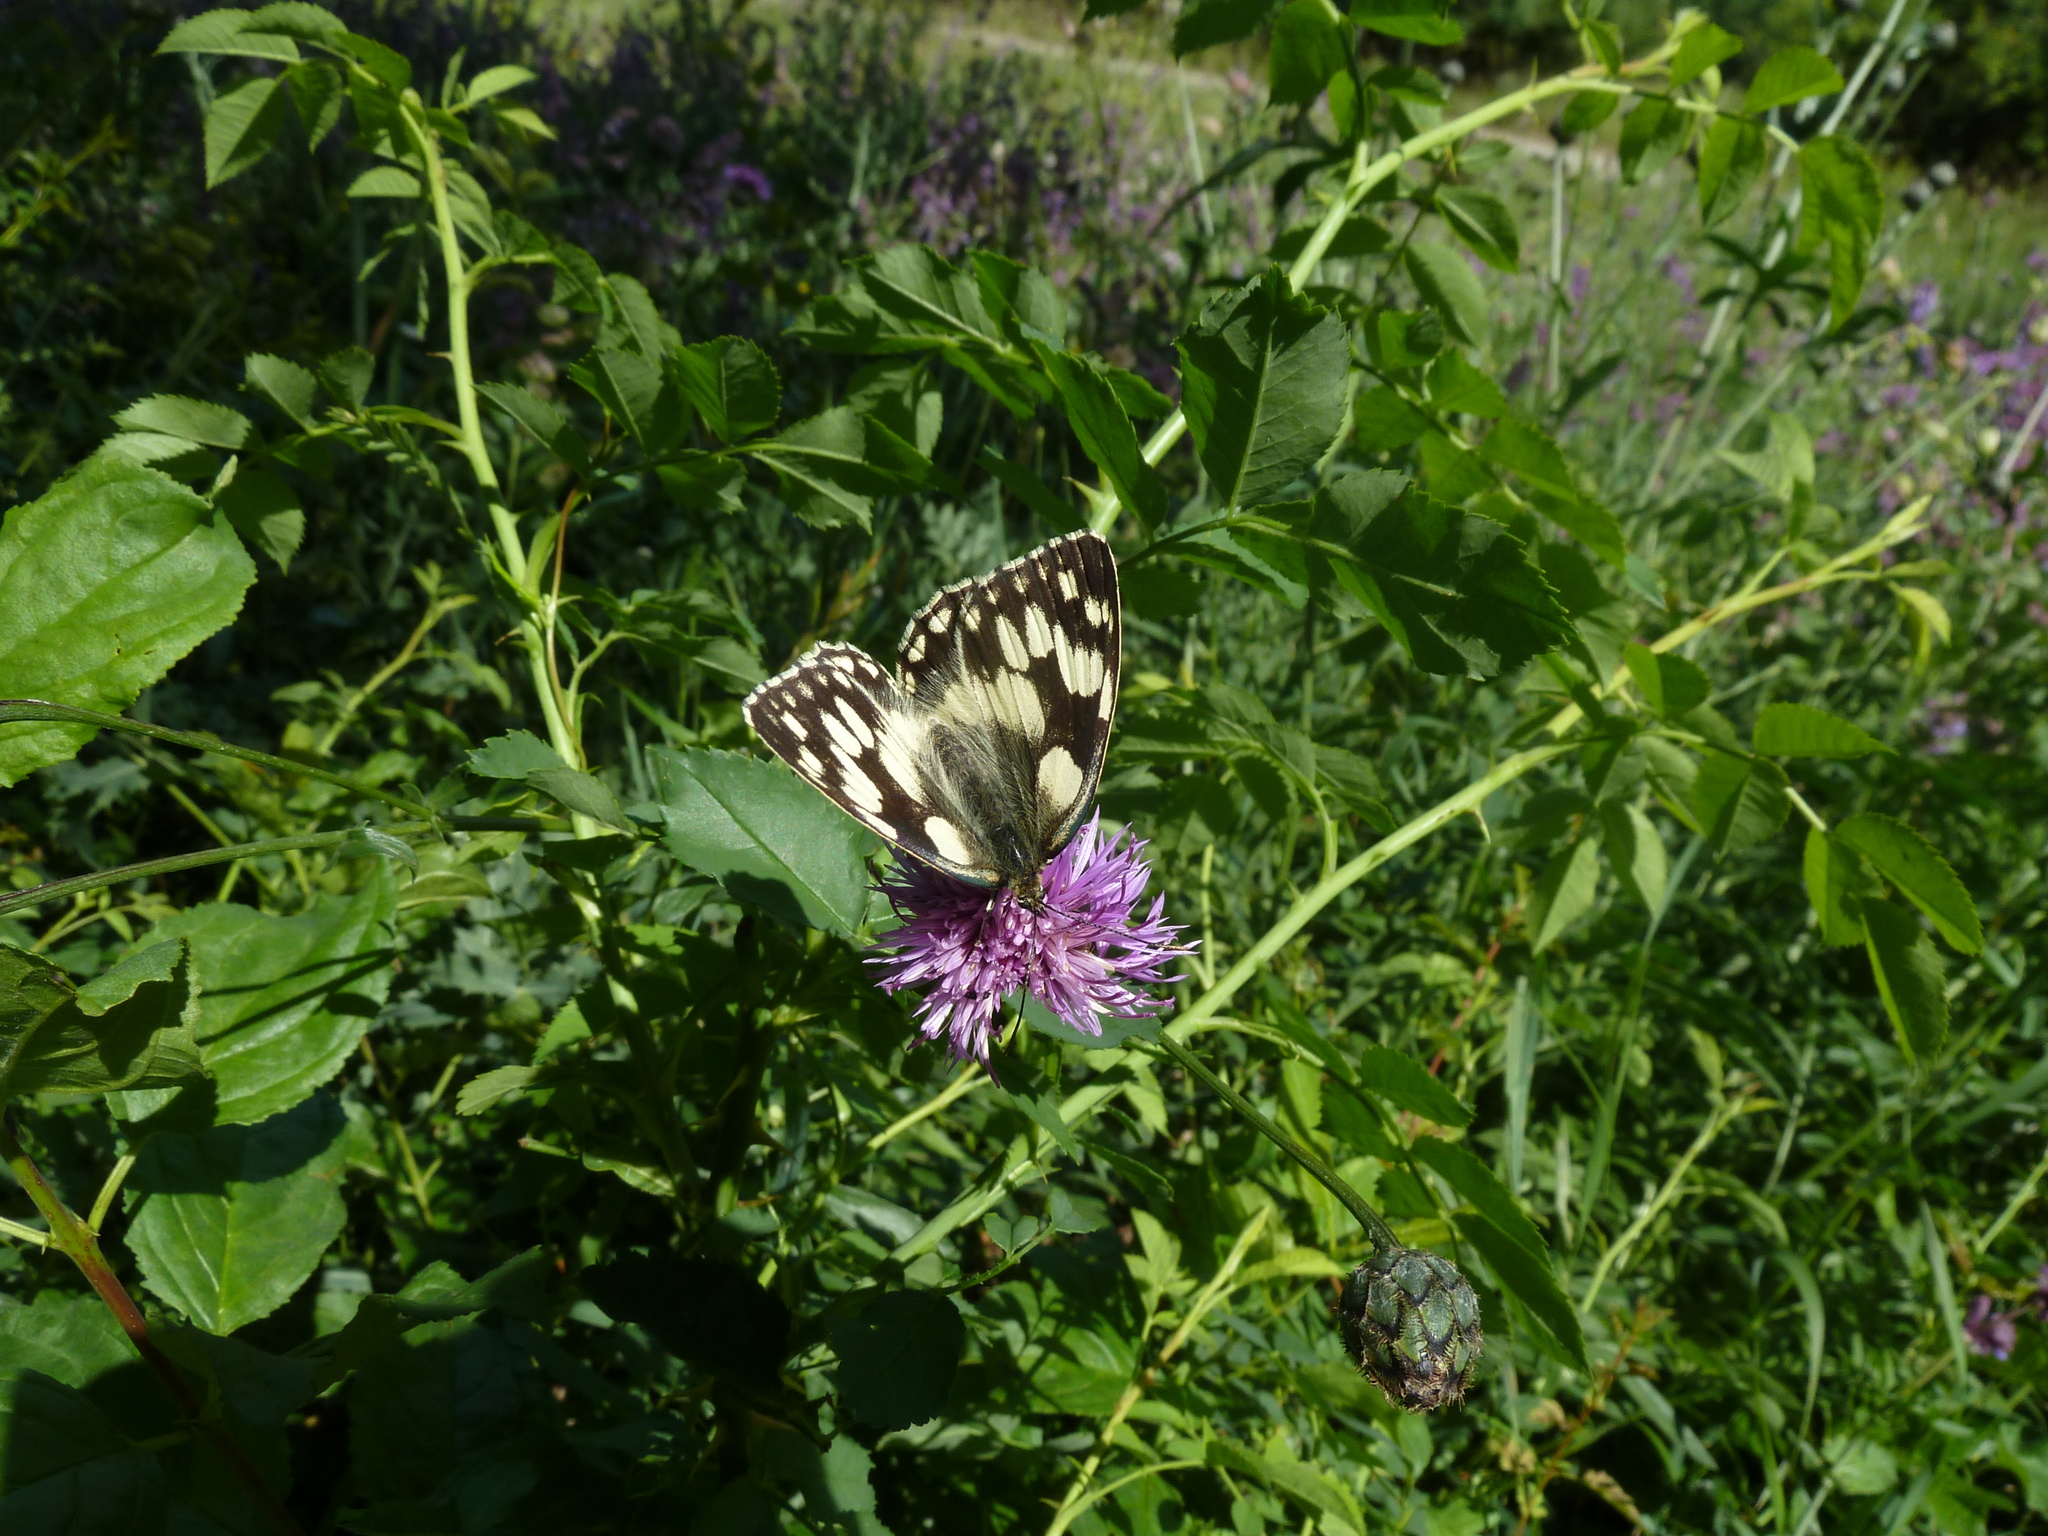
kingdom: Animalia
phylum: Arthropoda
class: Insecta
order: Lepidoptera
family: Nymphalidae
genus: Melanargia
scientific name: Melanargia galathea
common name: Marbled white
